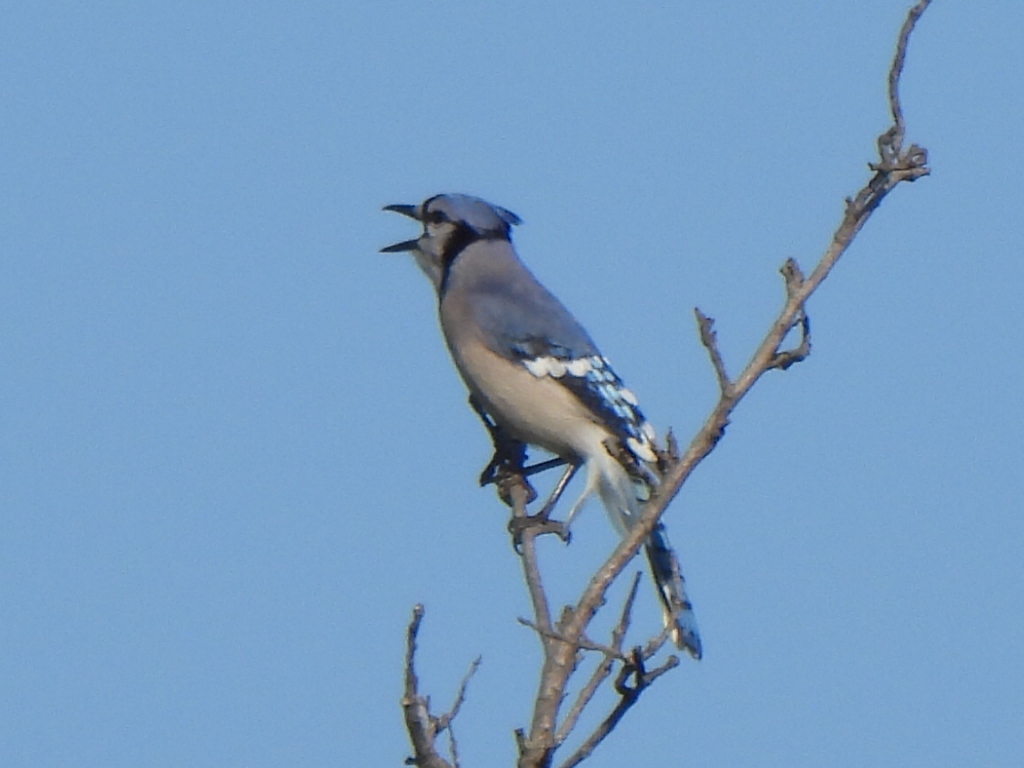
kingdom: Animalia
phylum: Chordata
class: Aves
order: Passeriformes
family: Corvidae
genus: Cyanocitta
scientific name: Cyanocitta cristata
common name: Blue jay
